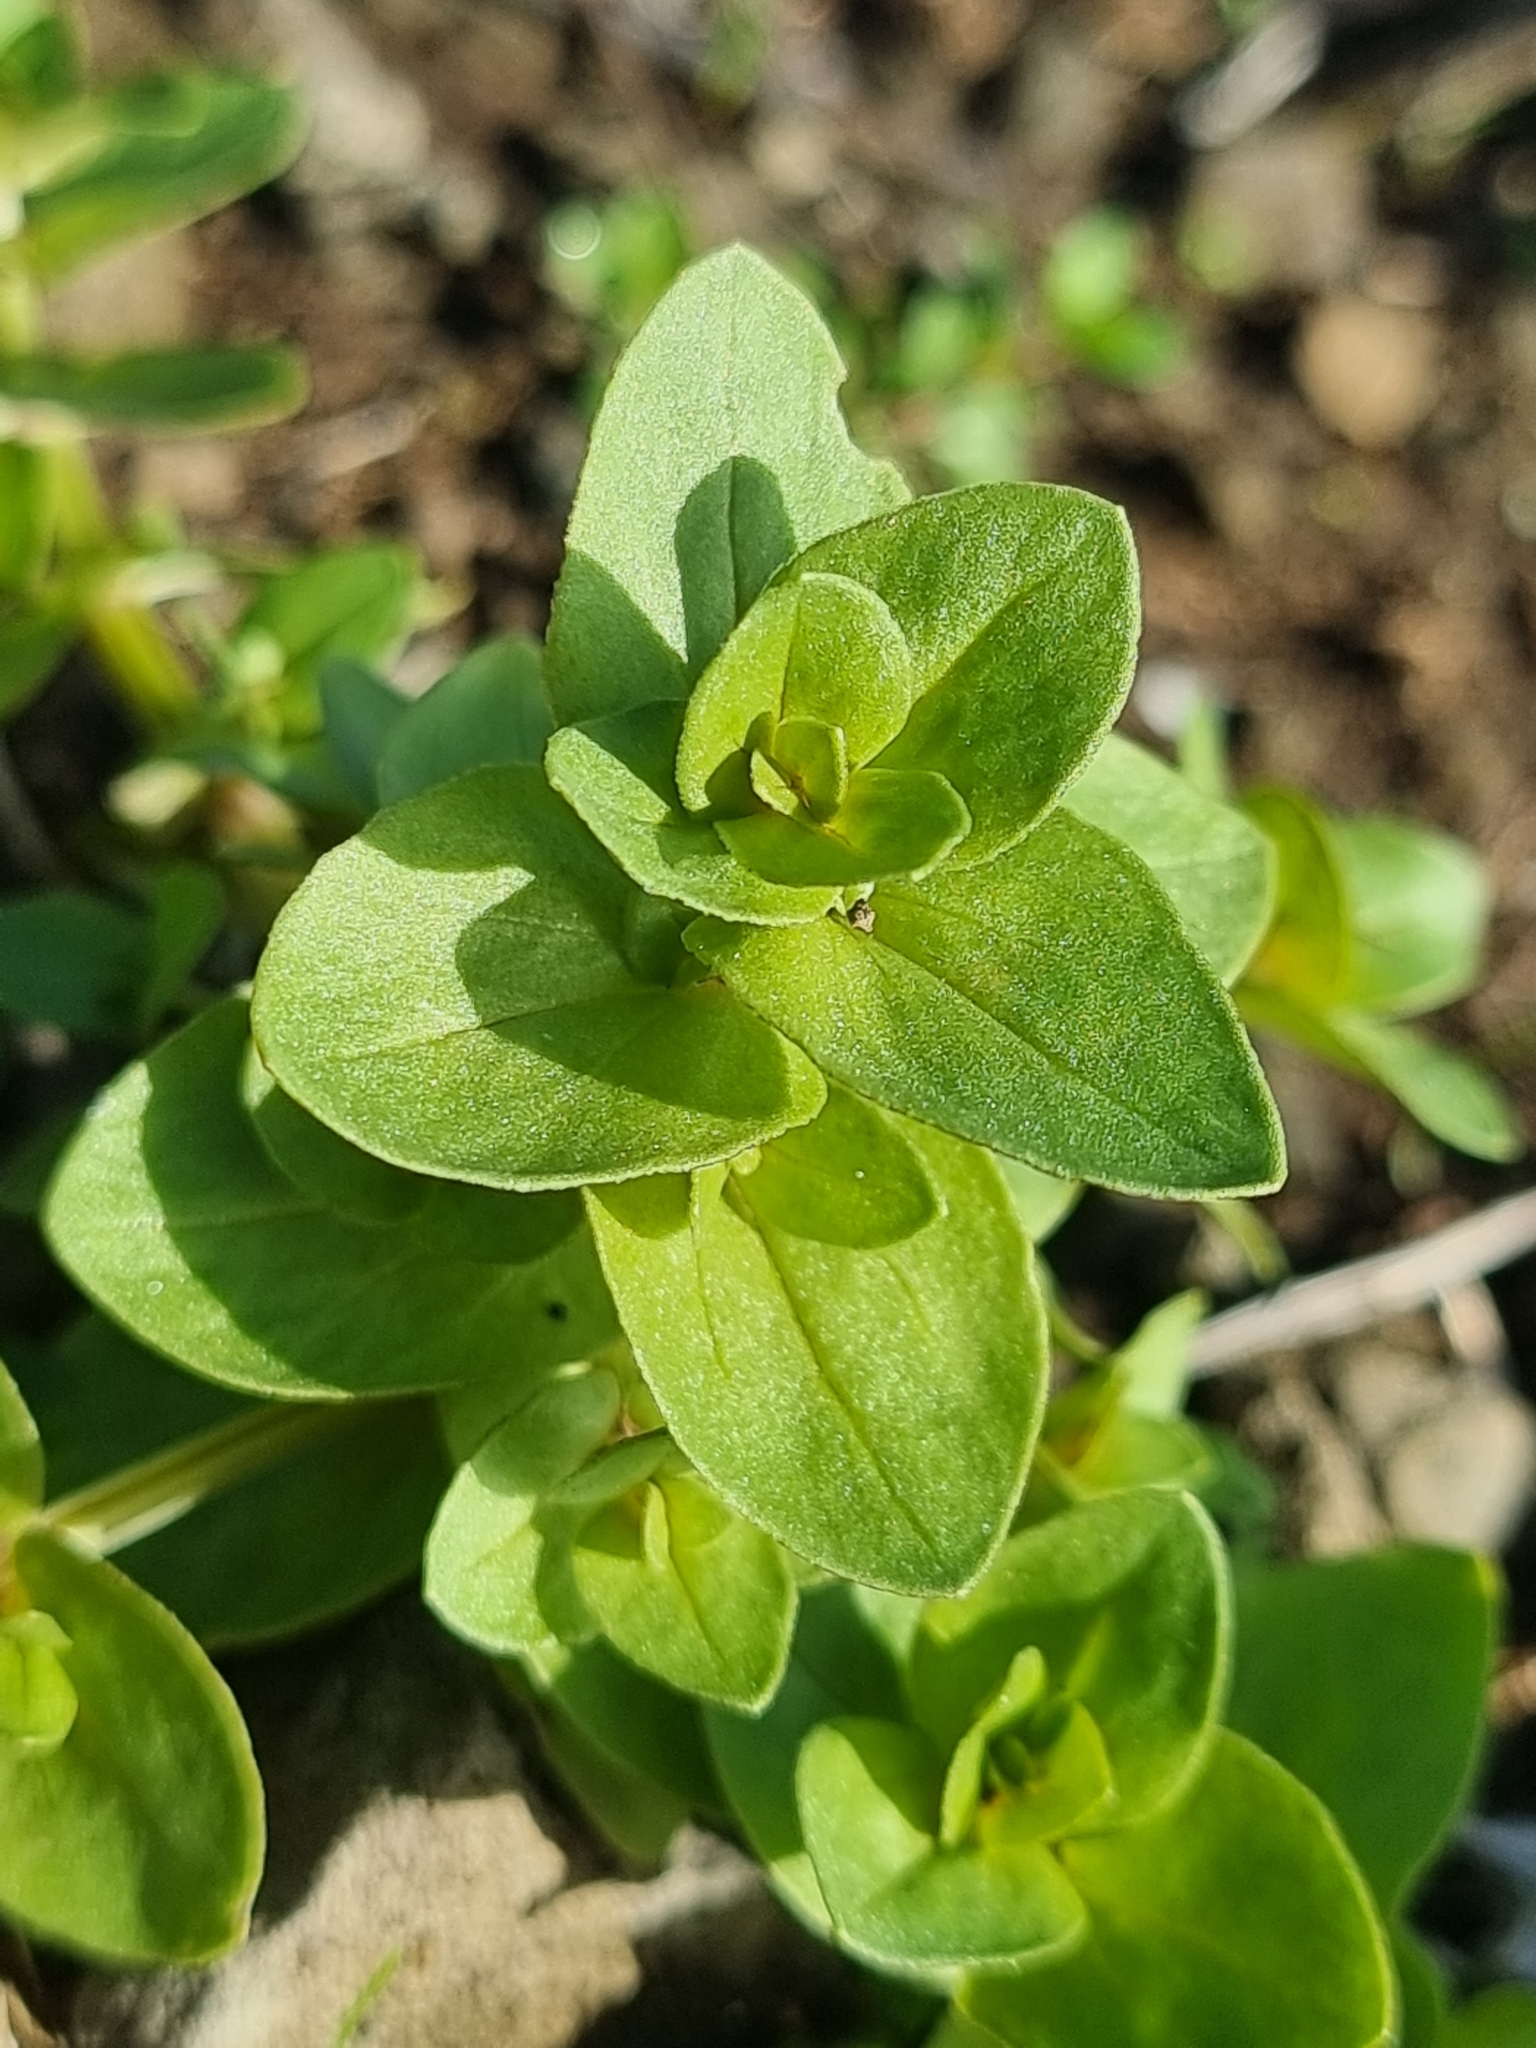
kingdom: Plantae
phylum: Tracheophyta
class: Magnoliopsida
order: Ericales
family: Primulaceae
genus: Lysimachia
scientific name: Lysimachia arvensis
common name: Scarlet pimpernel
